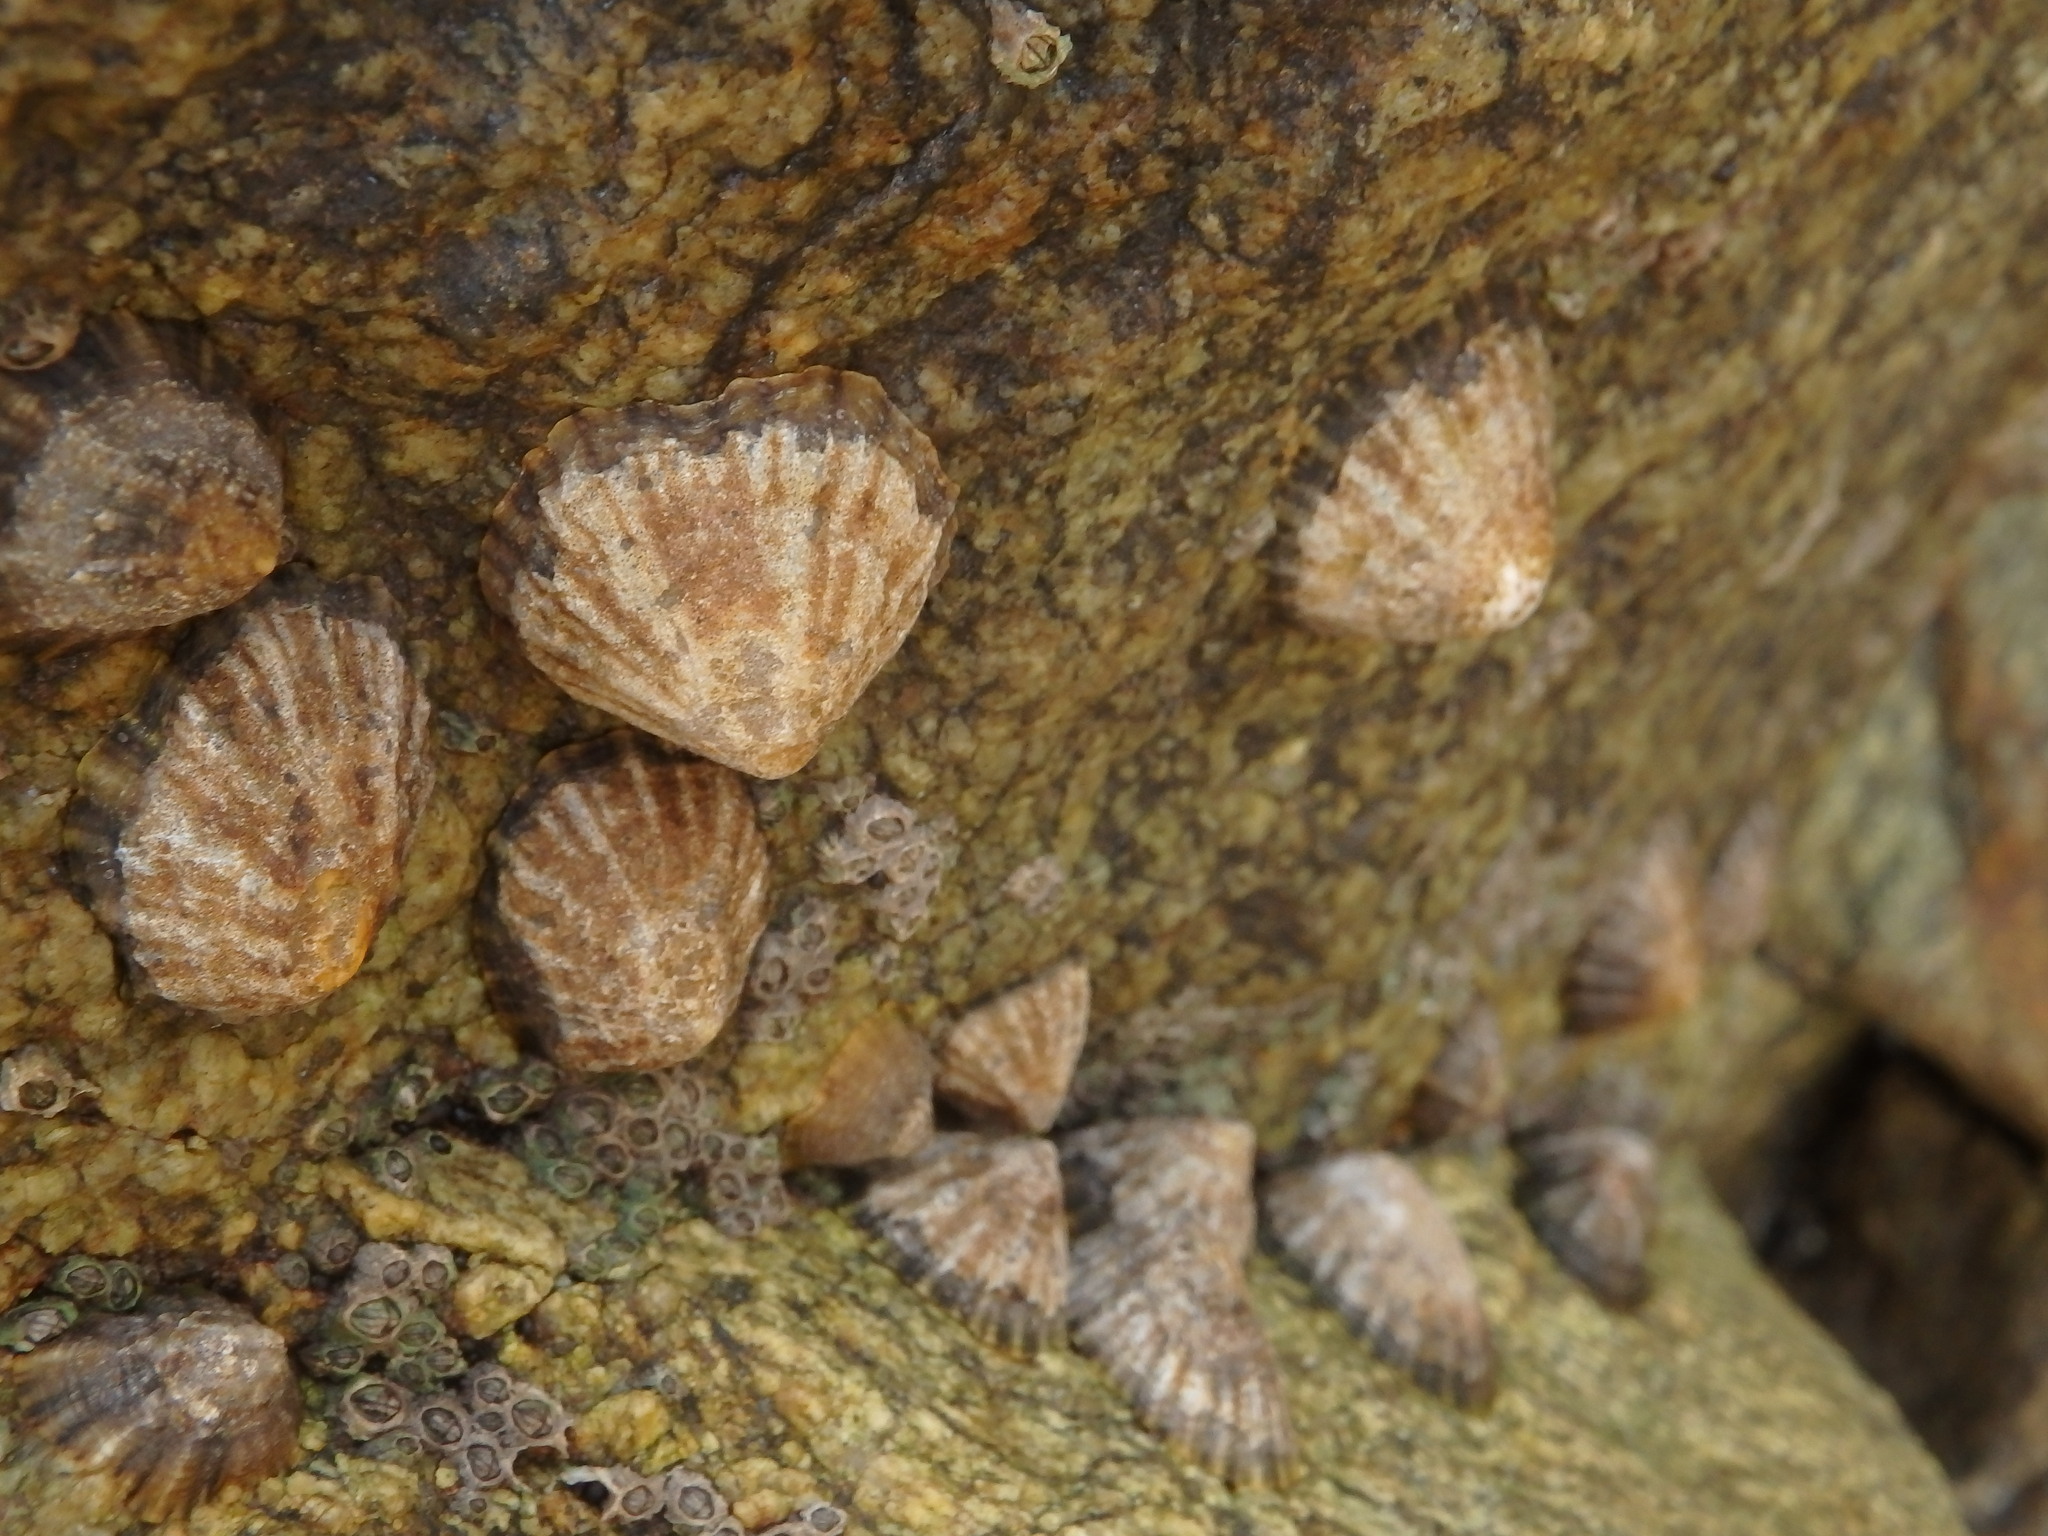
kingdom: Animalia
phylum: Mollusca
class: Gastropoda
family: Patellidae
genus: Patella
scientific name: Patella vulgata
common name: Common limpet
